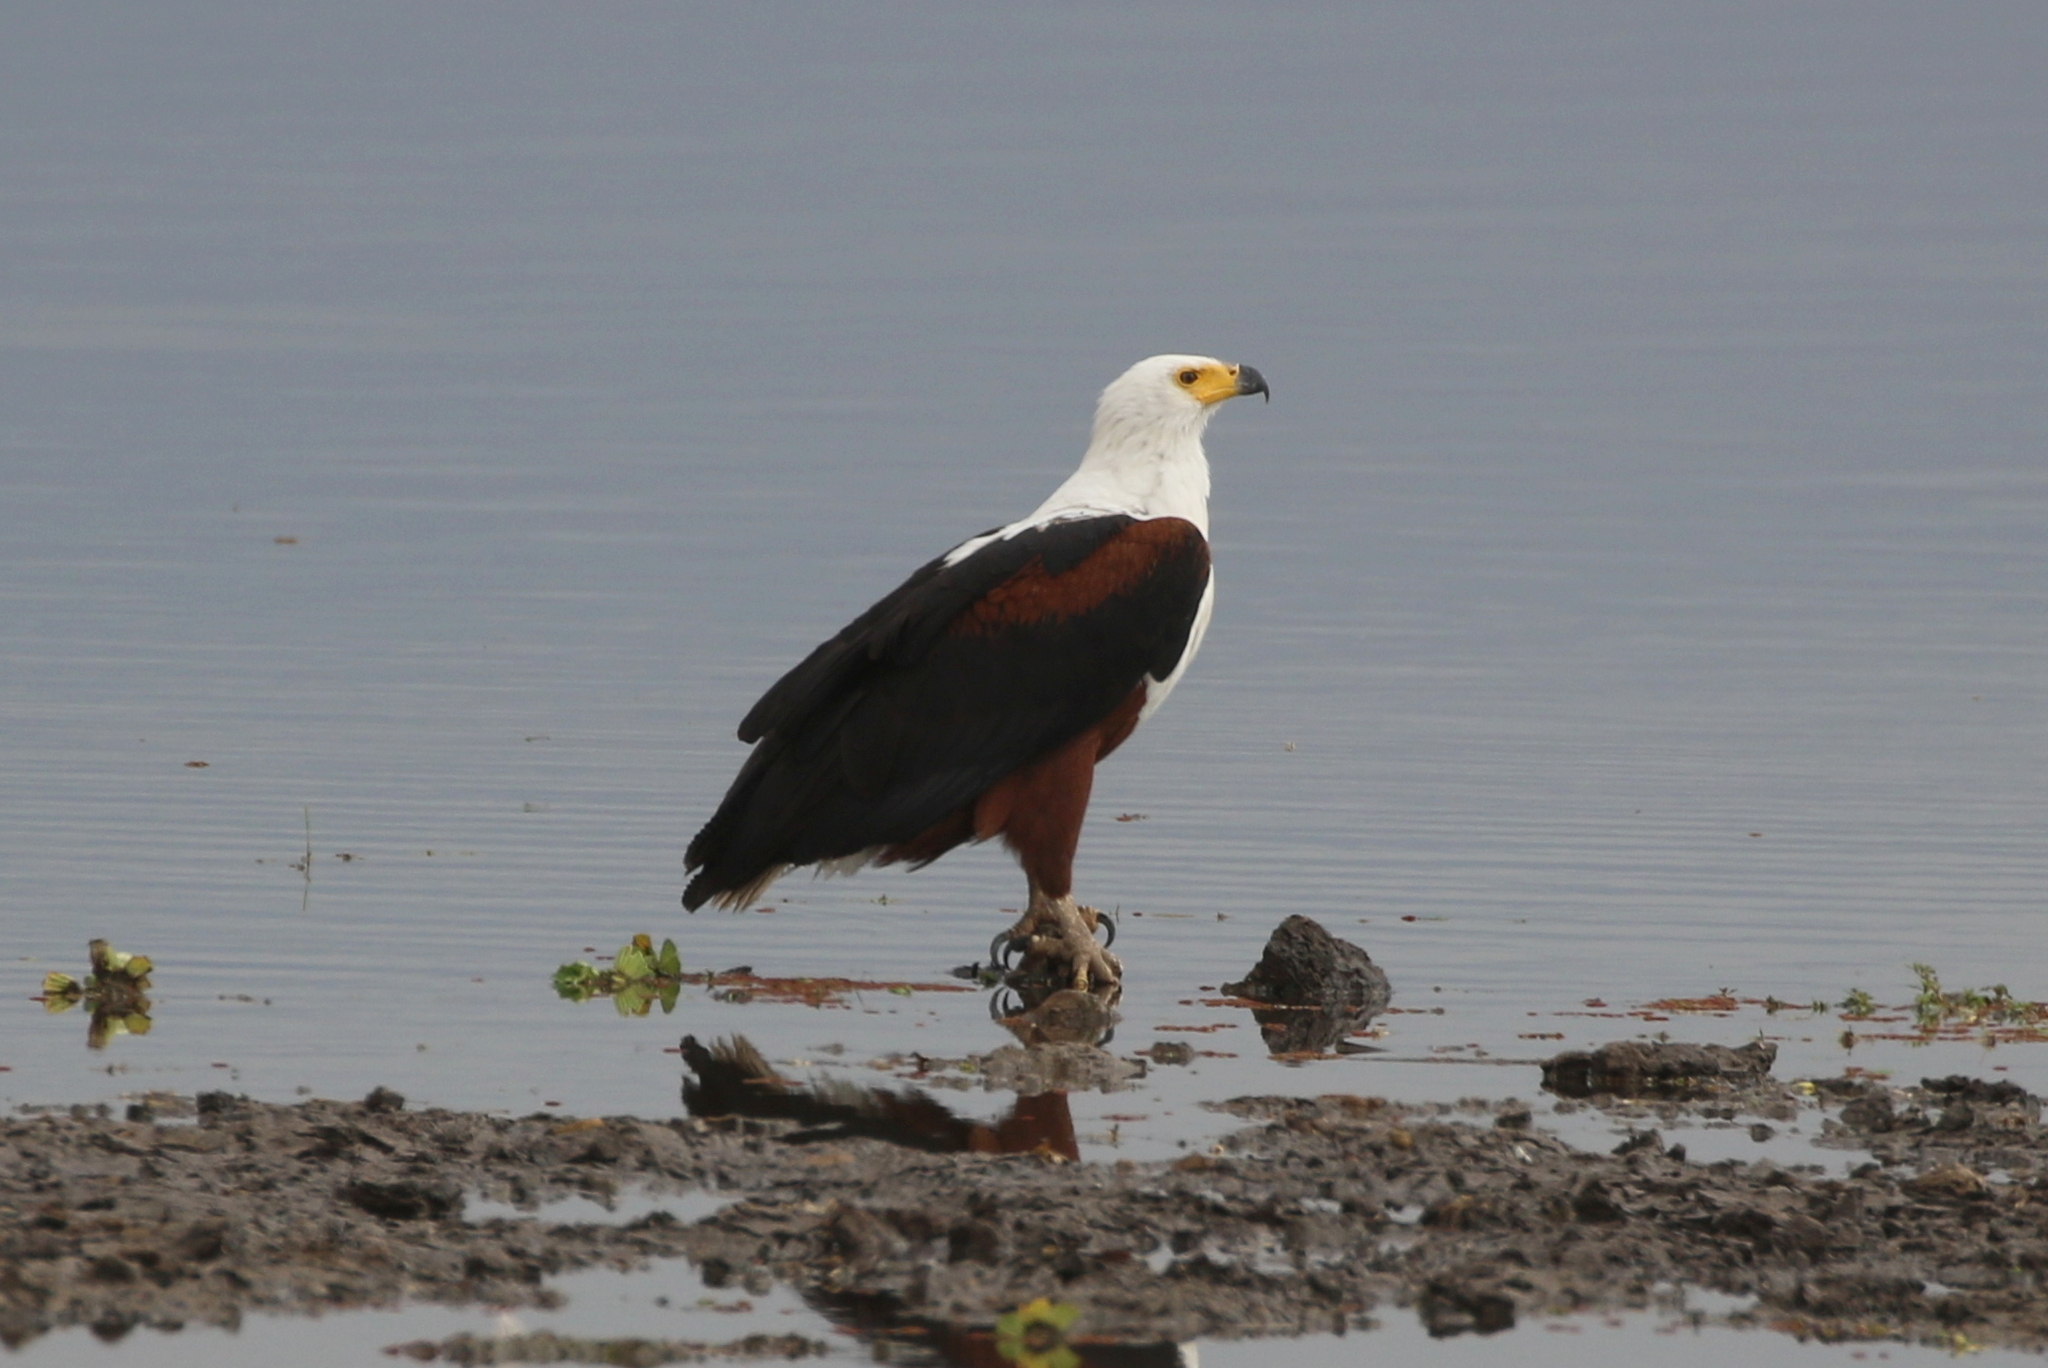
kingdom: Animalia
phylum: Chordata
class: Aves
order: Accipitriformes
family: Accipitridae
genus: Haliaeetus
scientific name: Haliaeetus vocifer
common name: African fish eagle
